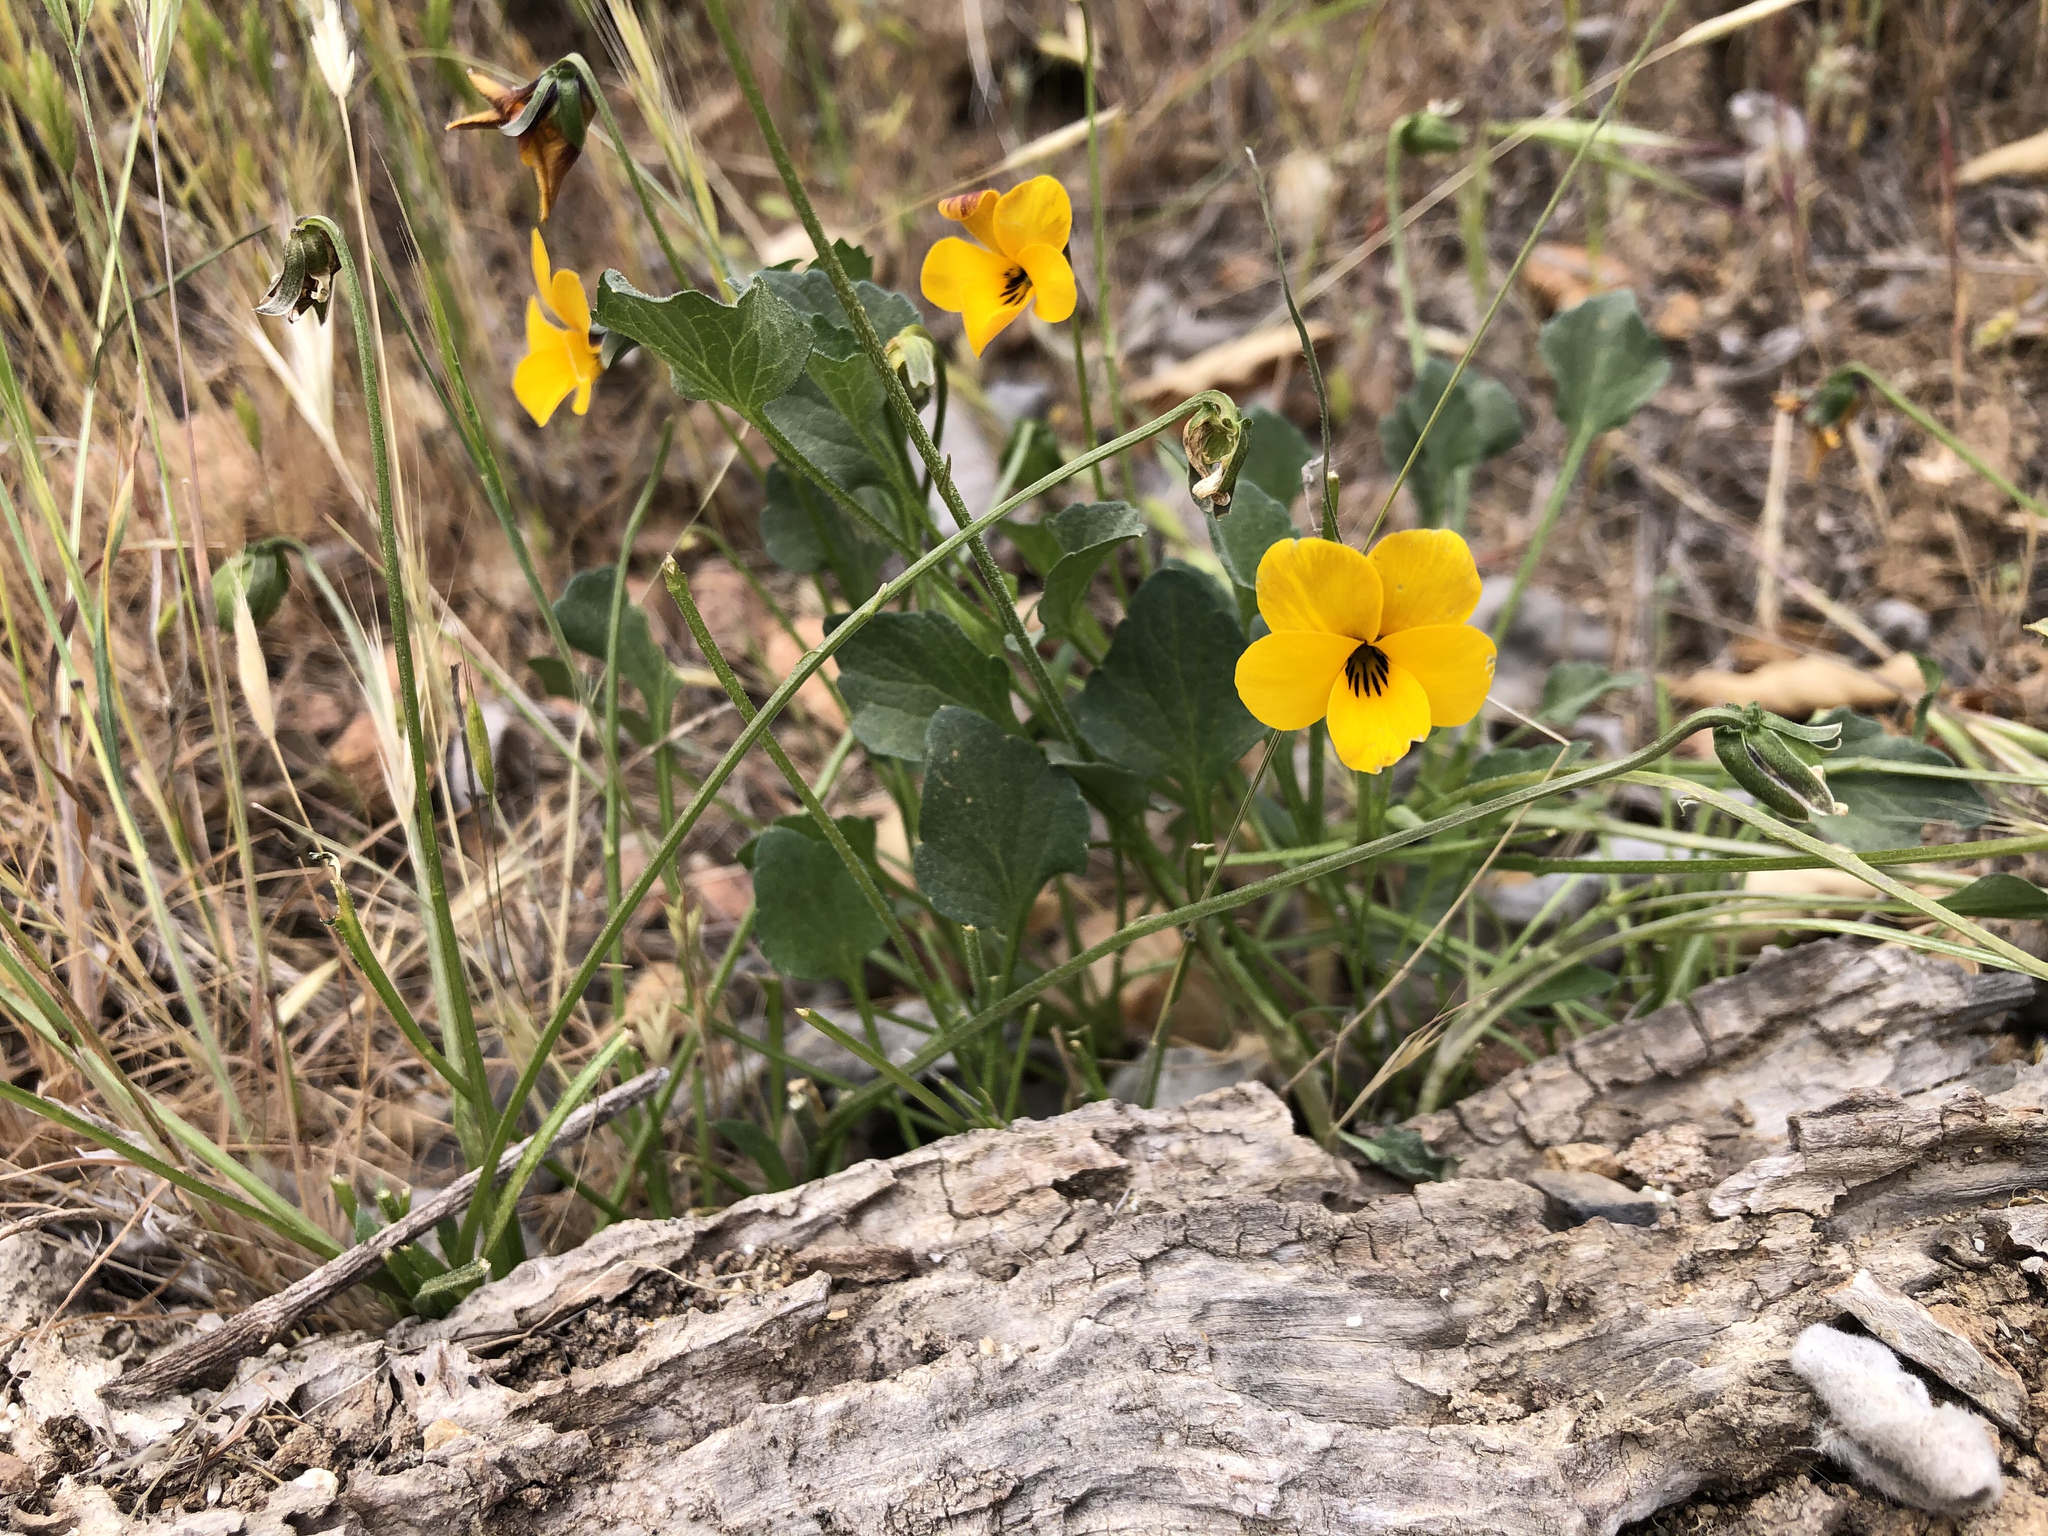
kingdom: Plantae
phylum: Tracheophyta
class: Magnoliopsida
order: Malpighiales
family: Violaceae
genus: Viola
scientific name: Viola pedunculata
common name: California golden violet
